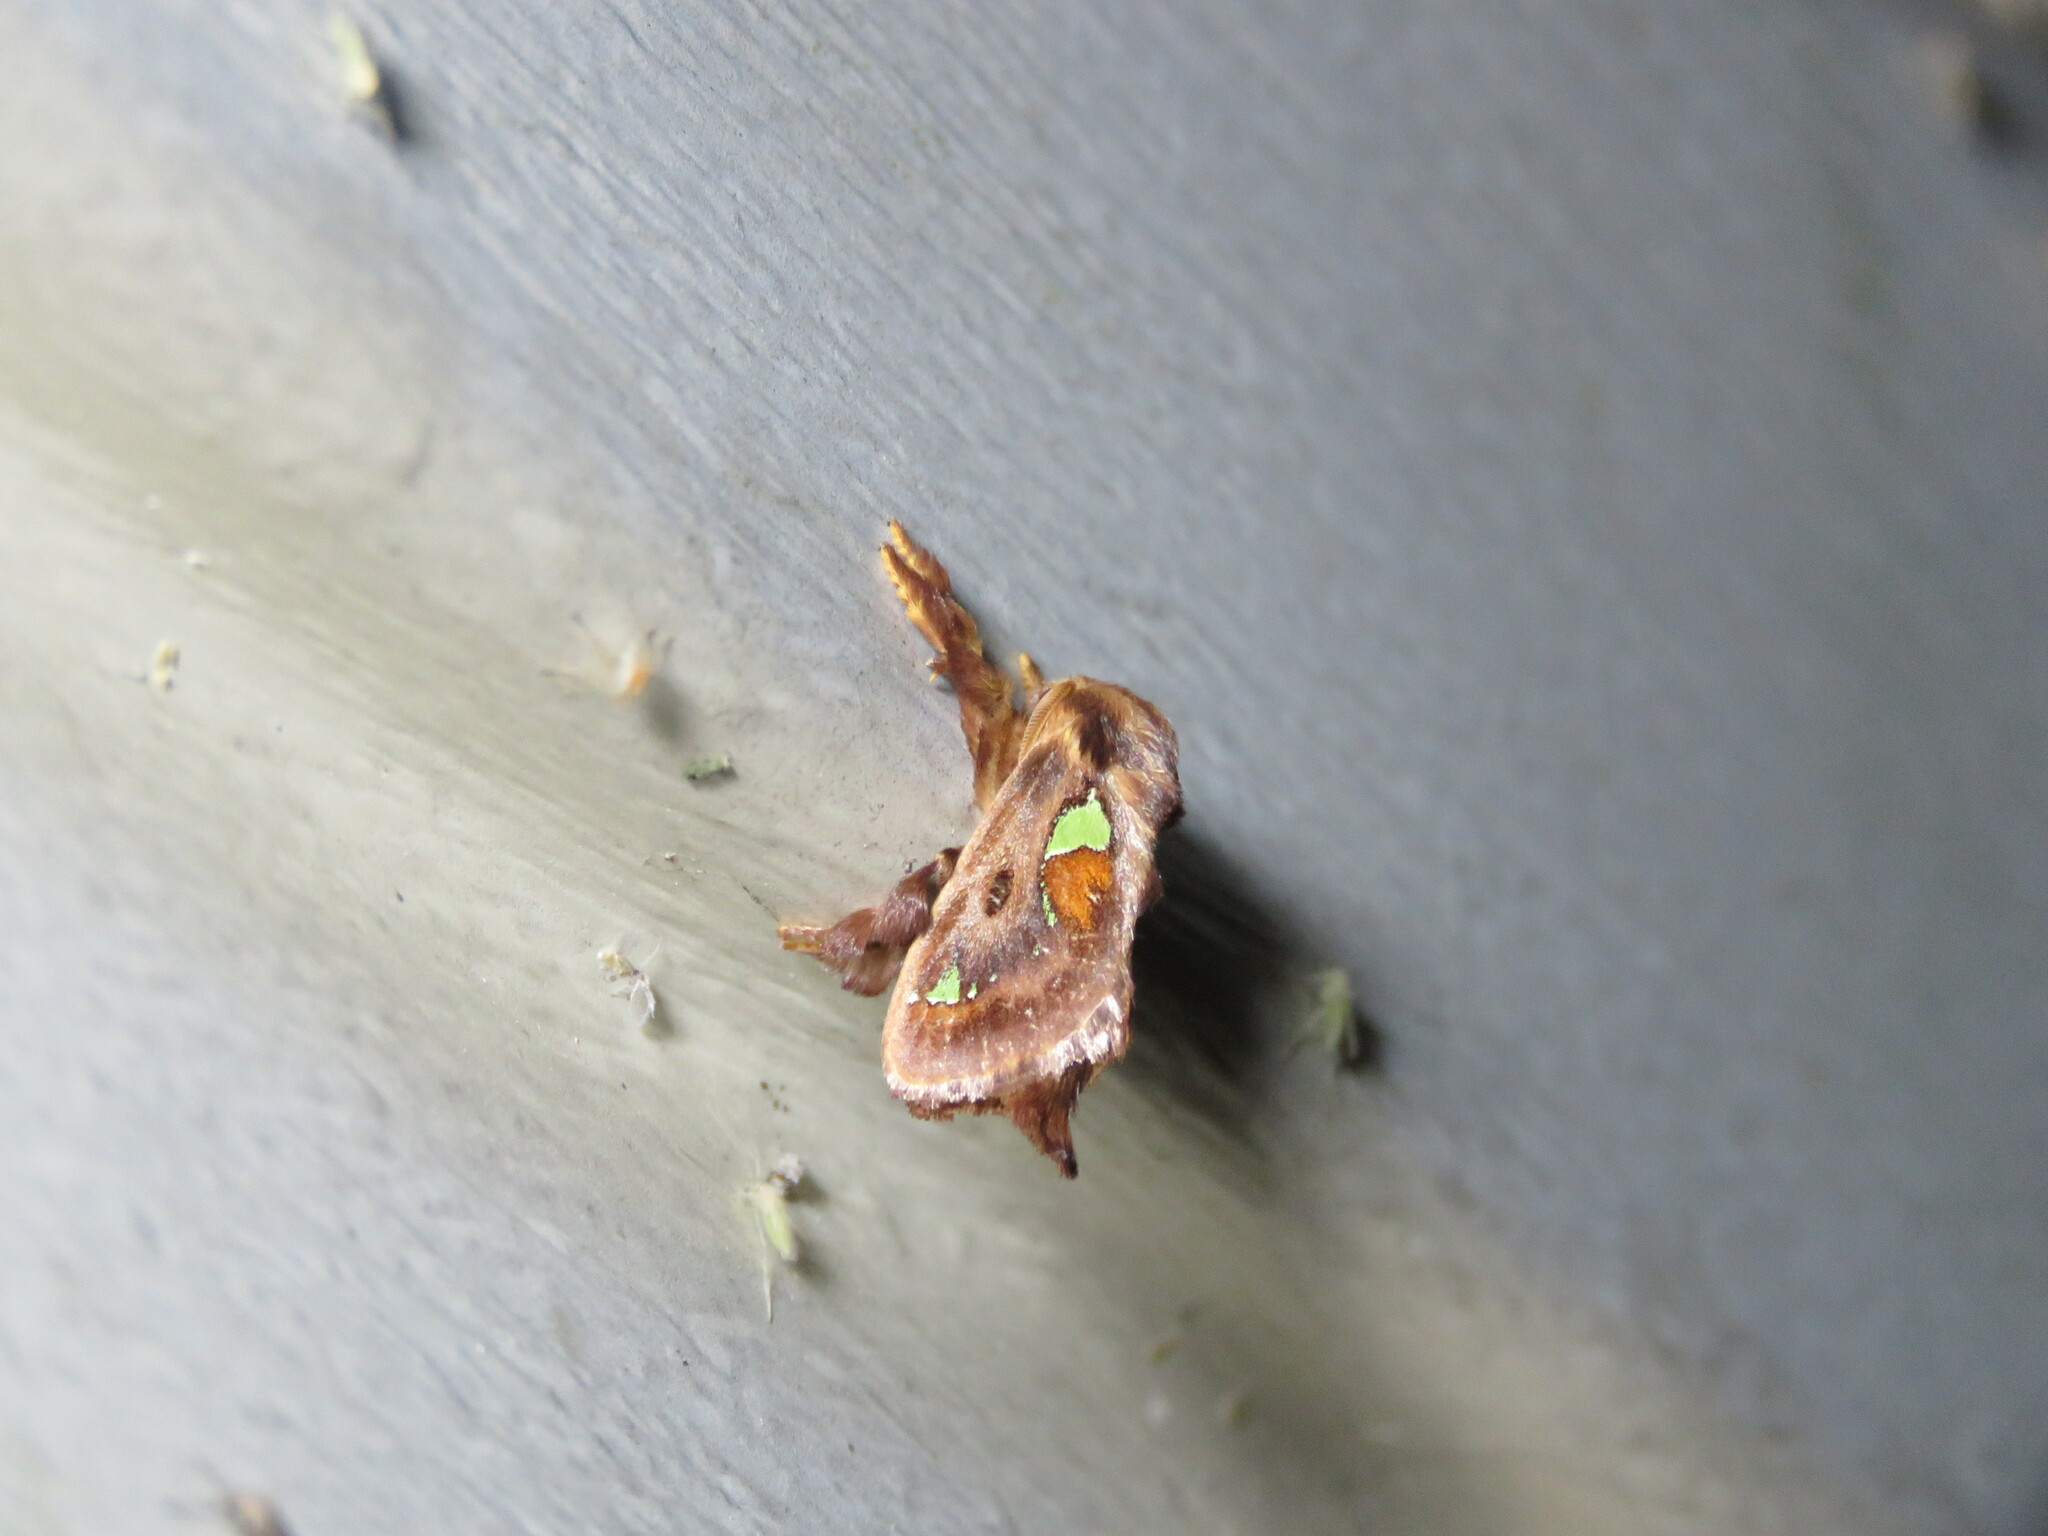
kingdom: Animalia
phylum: Arthropoda
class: Insecta
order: Lepidoptera
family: Limacodidae
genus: Euclea
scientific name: Euclea delphinii
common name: Spiny oak-slug moth
